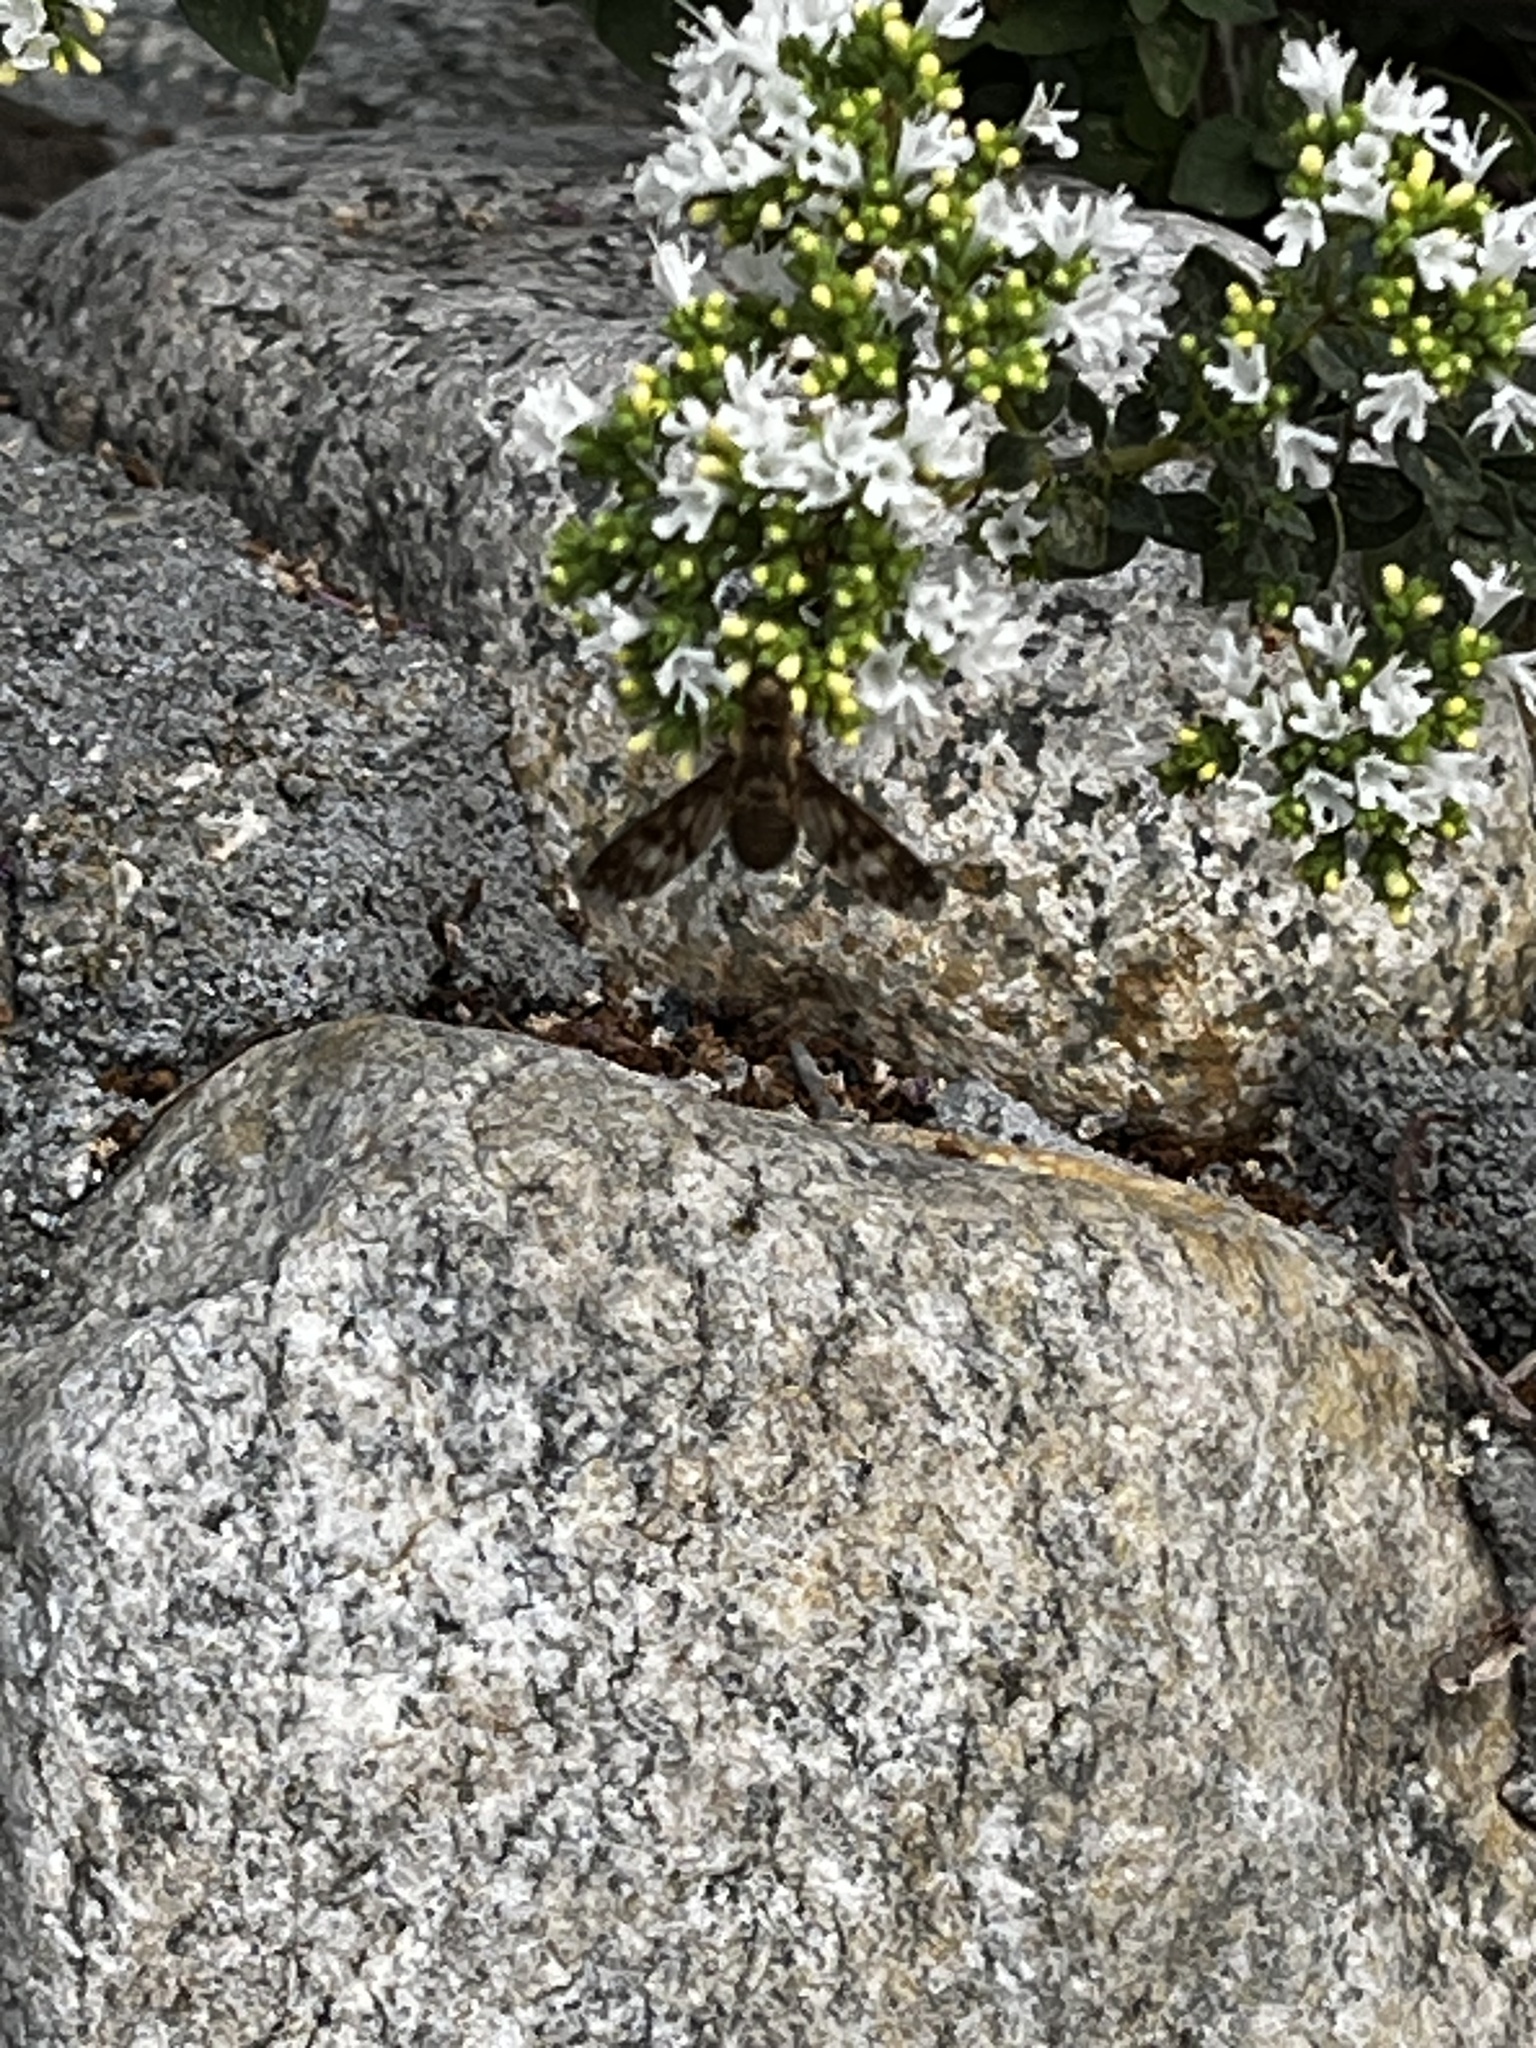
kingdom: Animalia
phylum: Arthropoda
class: Insecta
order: Diptera
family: Bombyliidae
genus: Dipalta
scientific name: Dipalta serpentina
